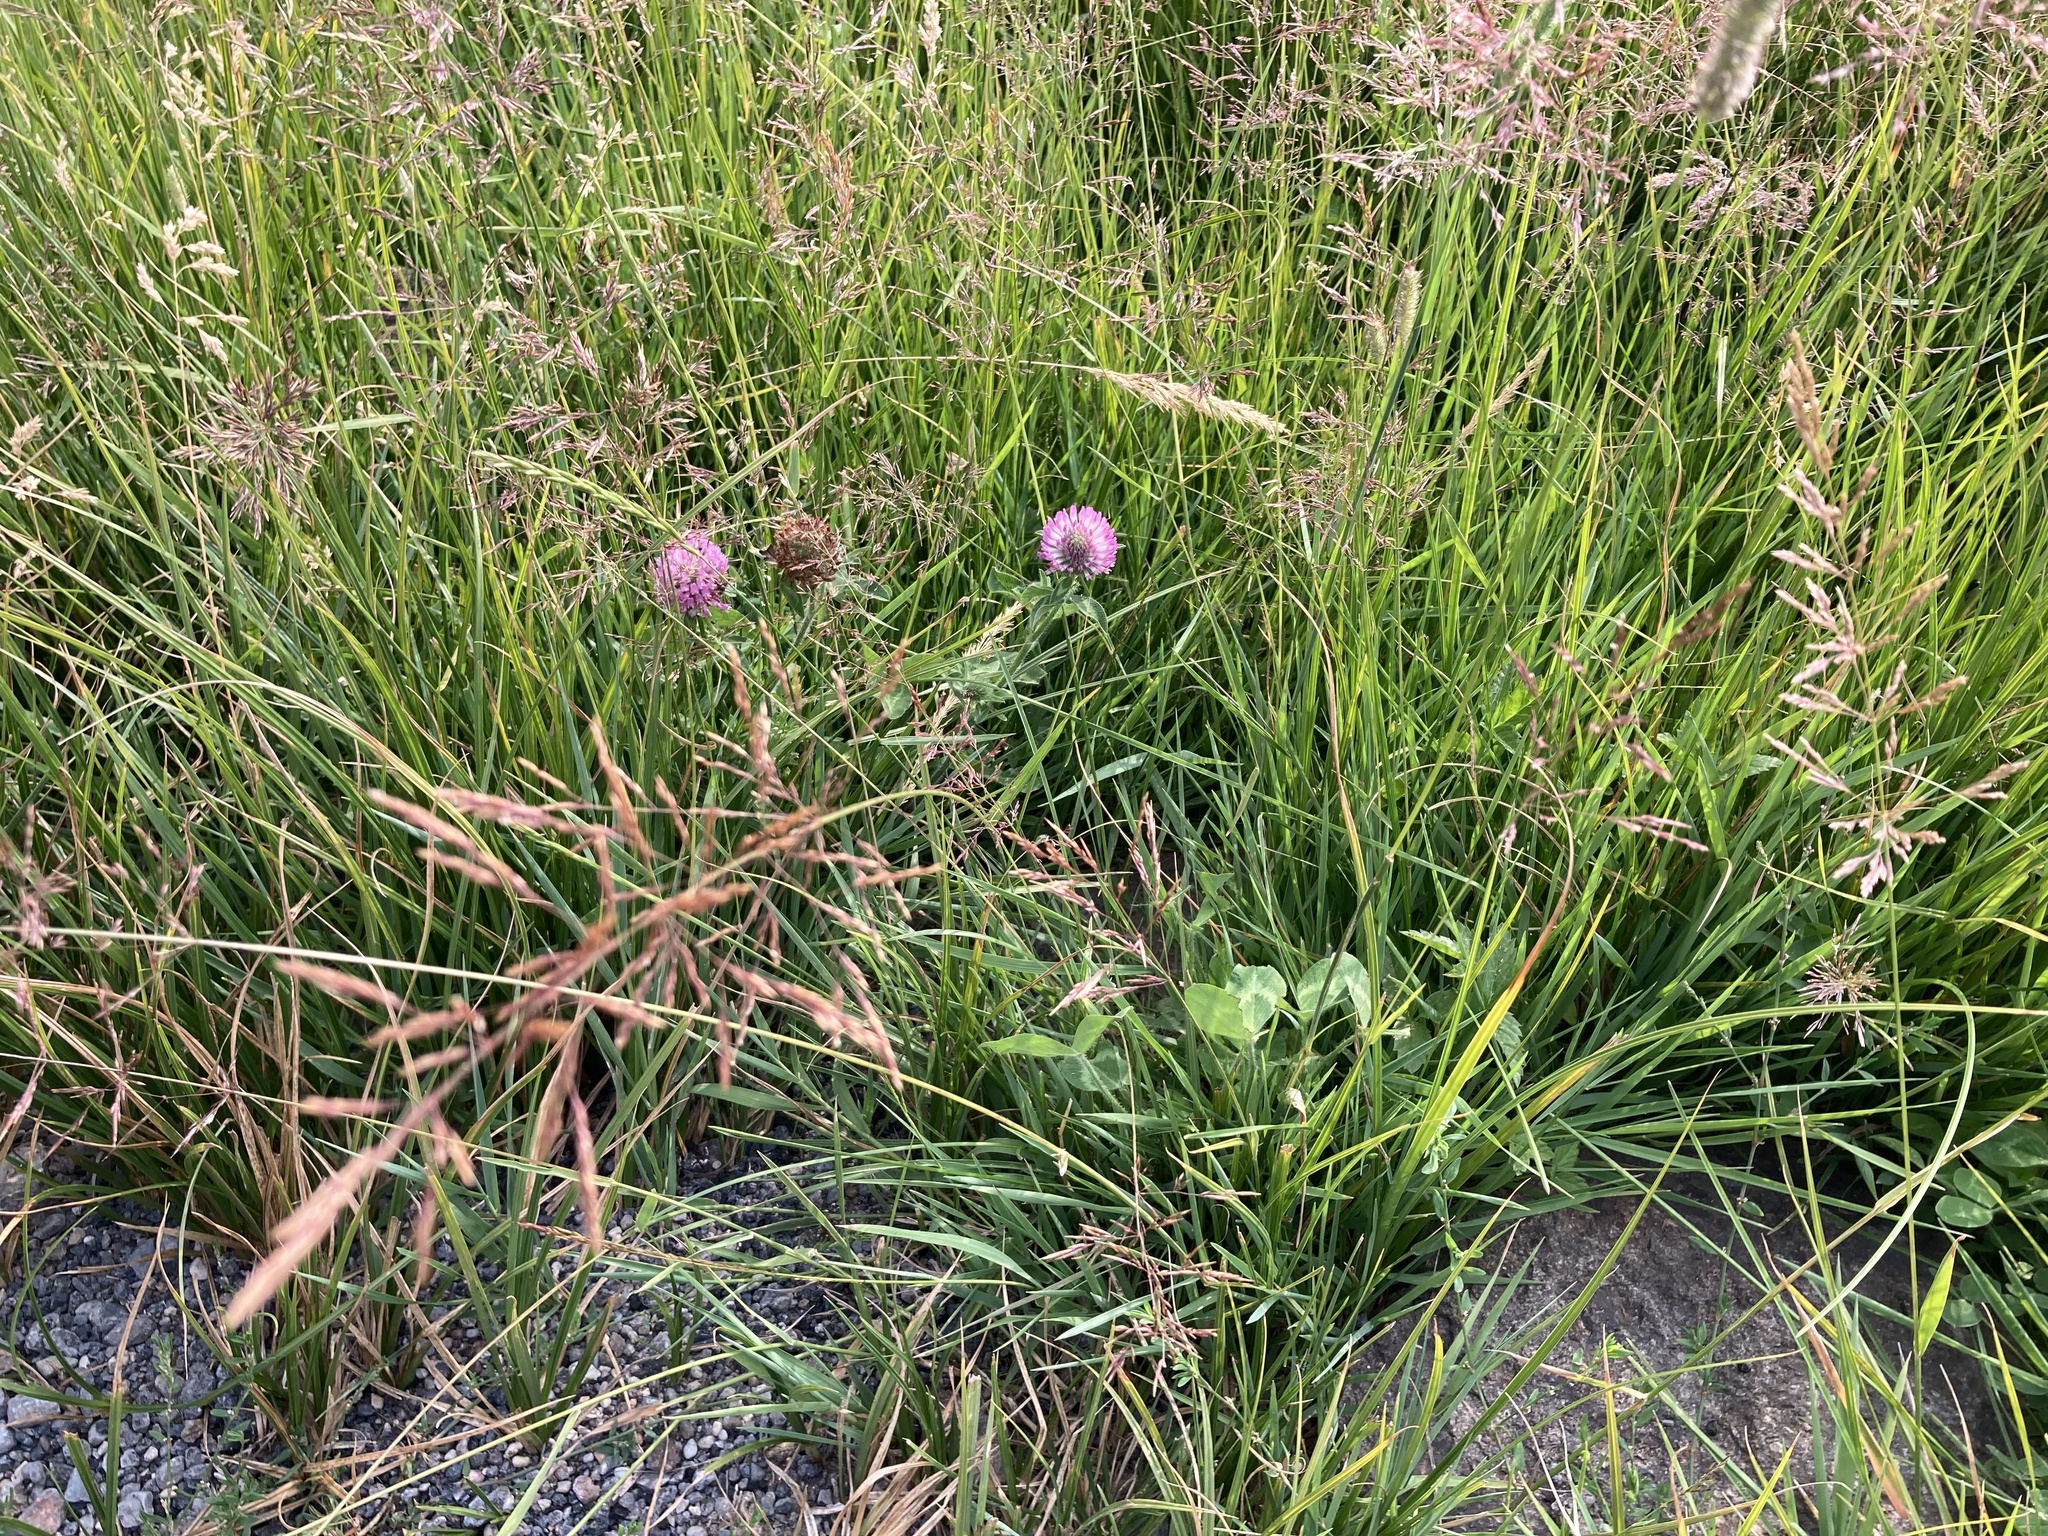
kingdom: Plantae
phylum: Tracheophyta
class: Magnoliopsida
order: Fabales
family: Fabaceae
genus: Trifolium
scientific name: Trifolium pratense
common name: Red clover
